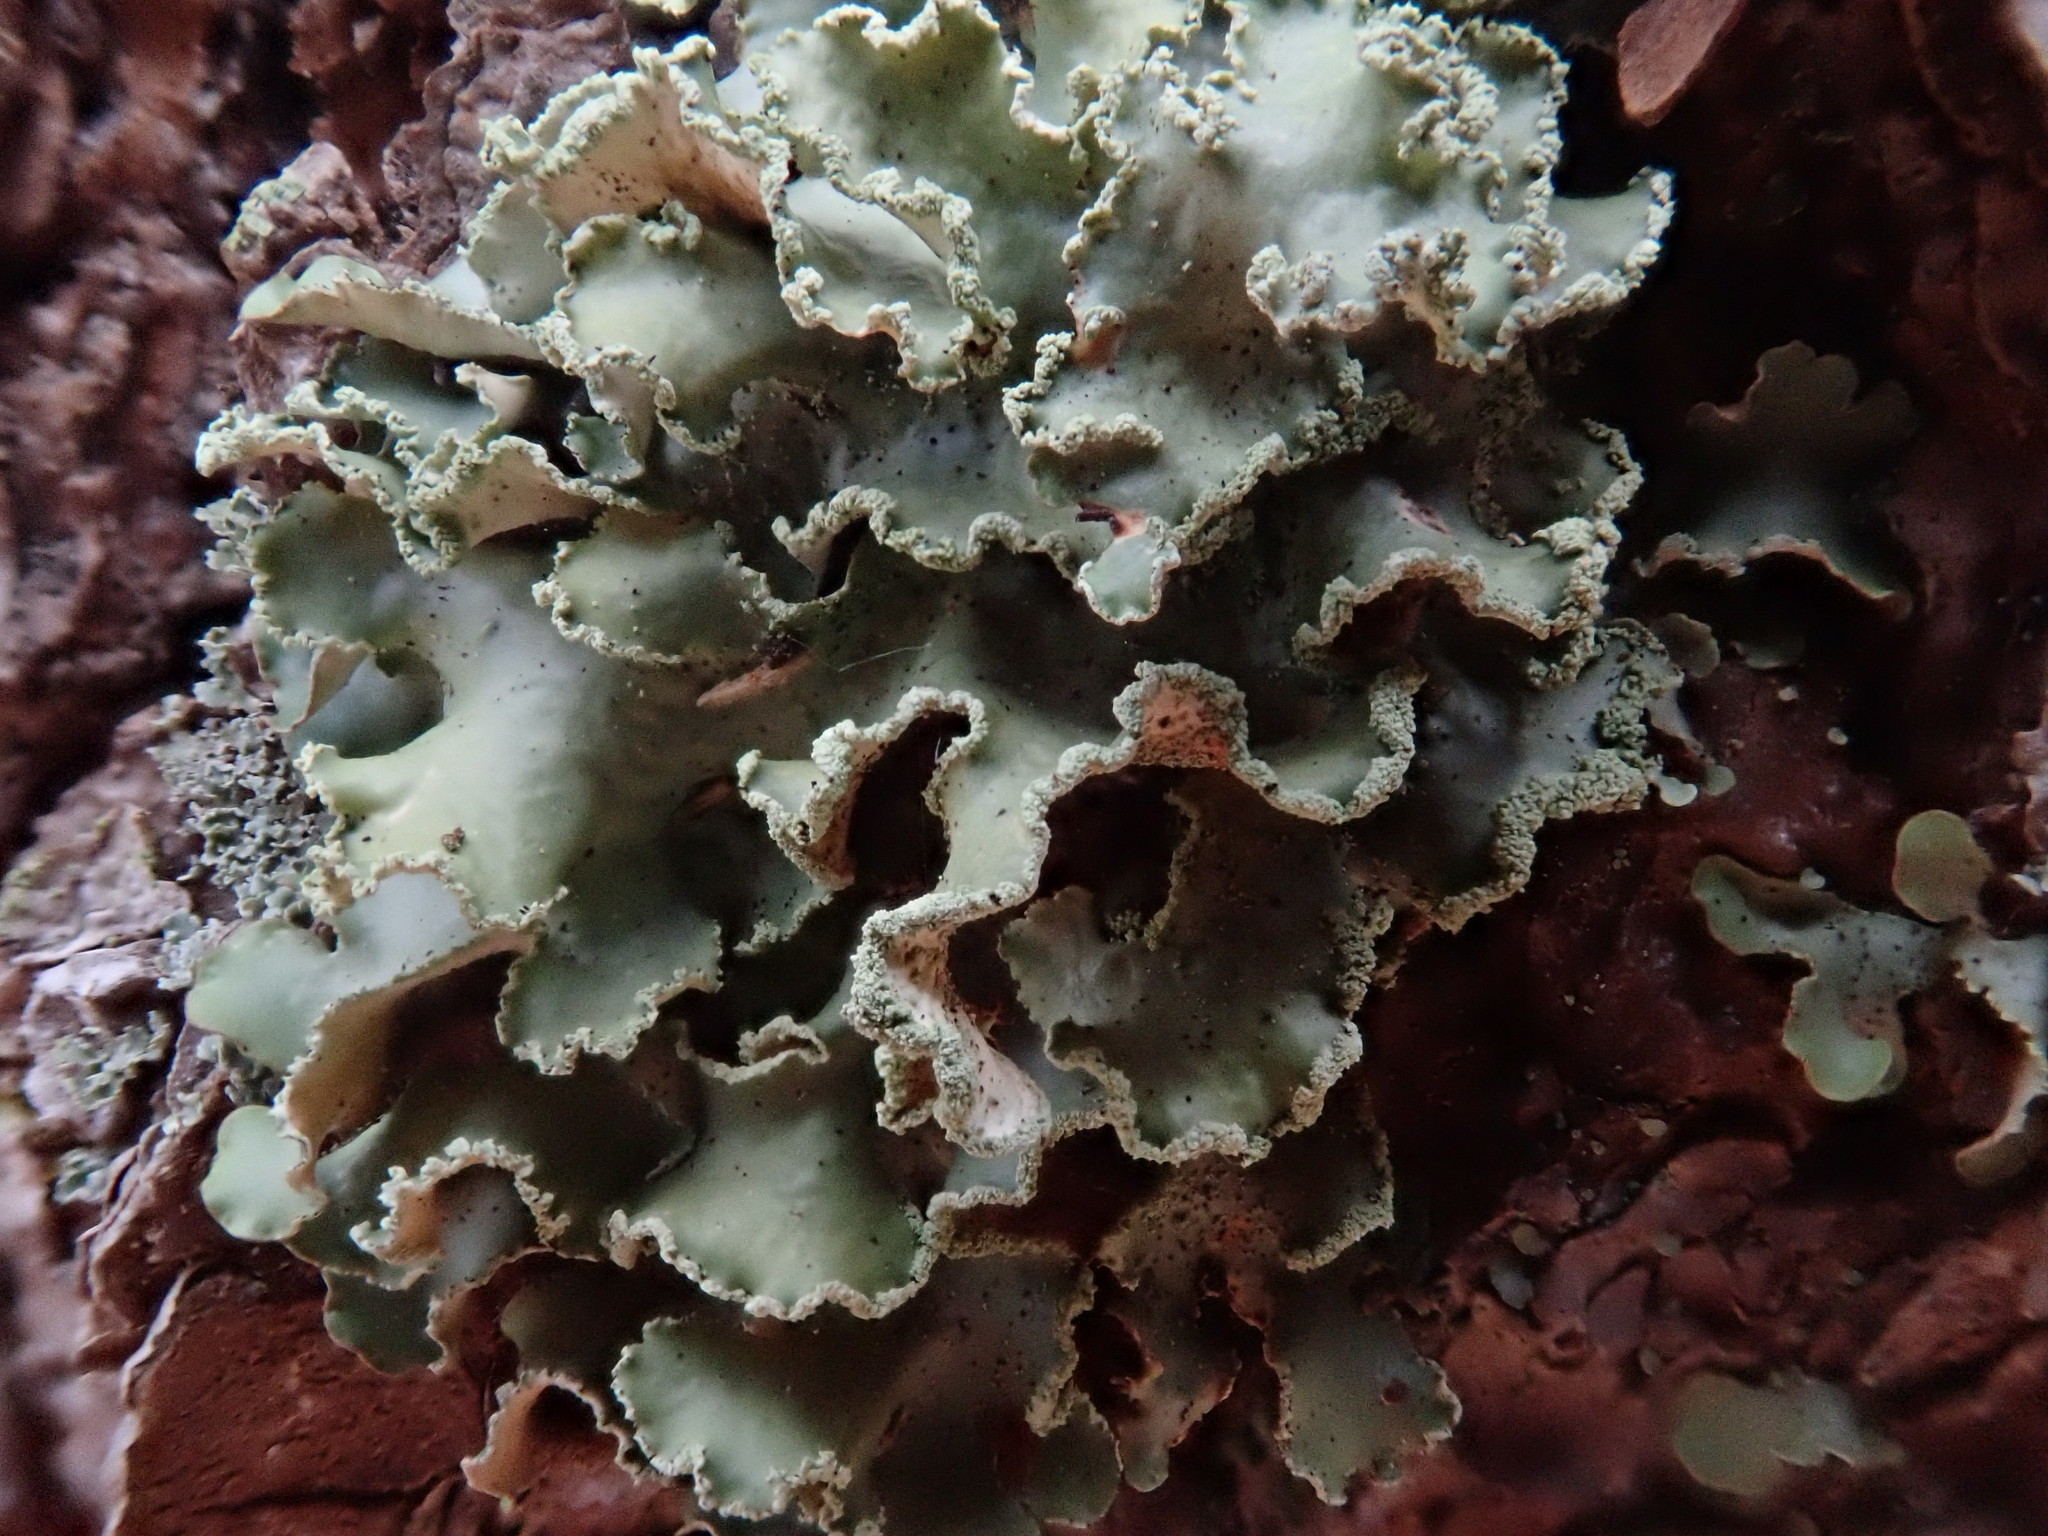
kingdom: Fungi
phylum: Ascomycota
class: Lecanoromycetes
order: Lecanorales
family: Parmeliaceae
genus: Usnocetraria
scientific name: Usnocetraria oakesiana
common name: Yellow ribbon lichen
